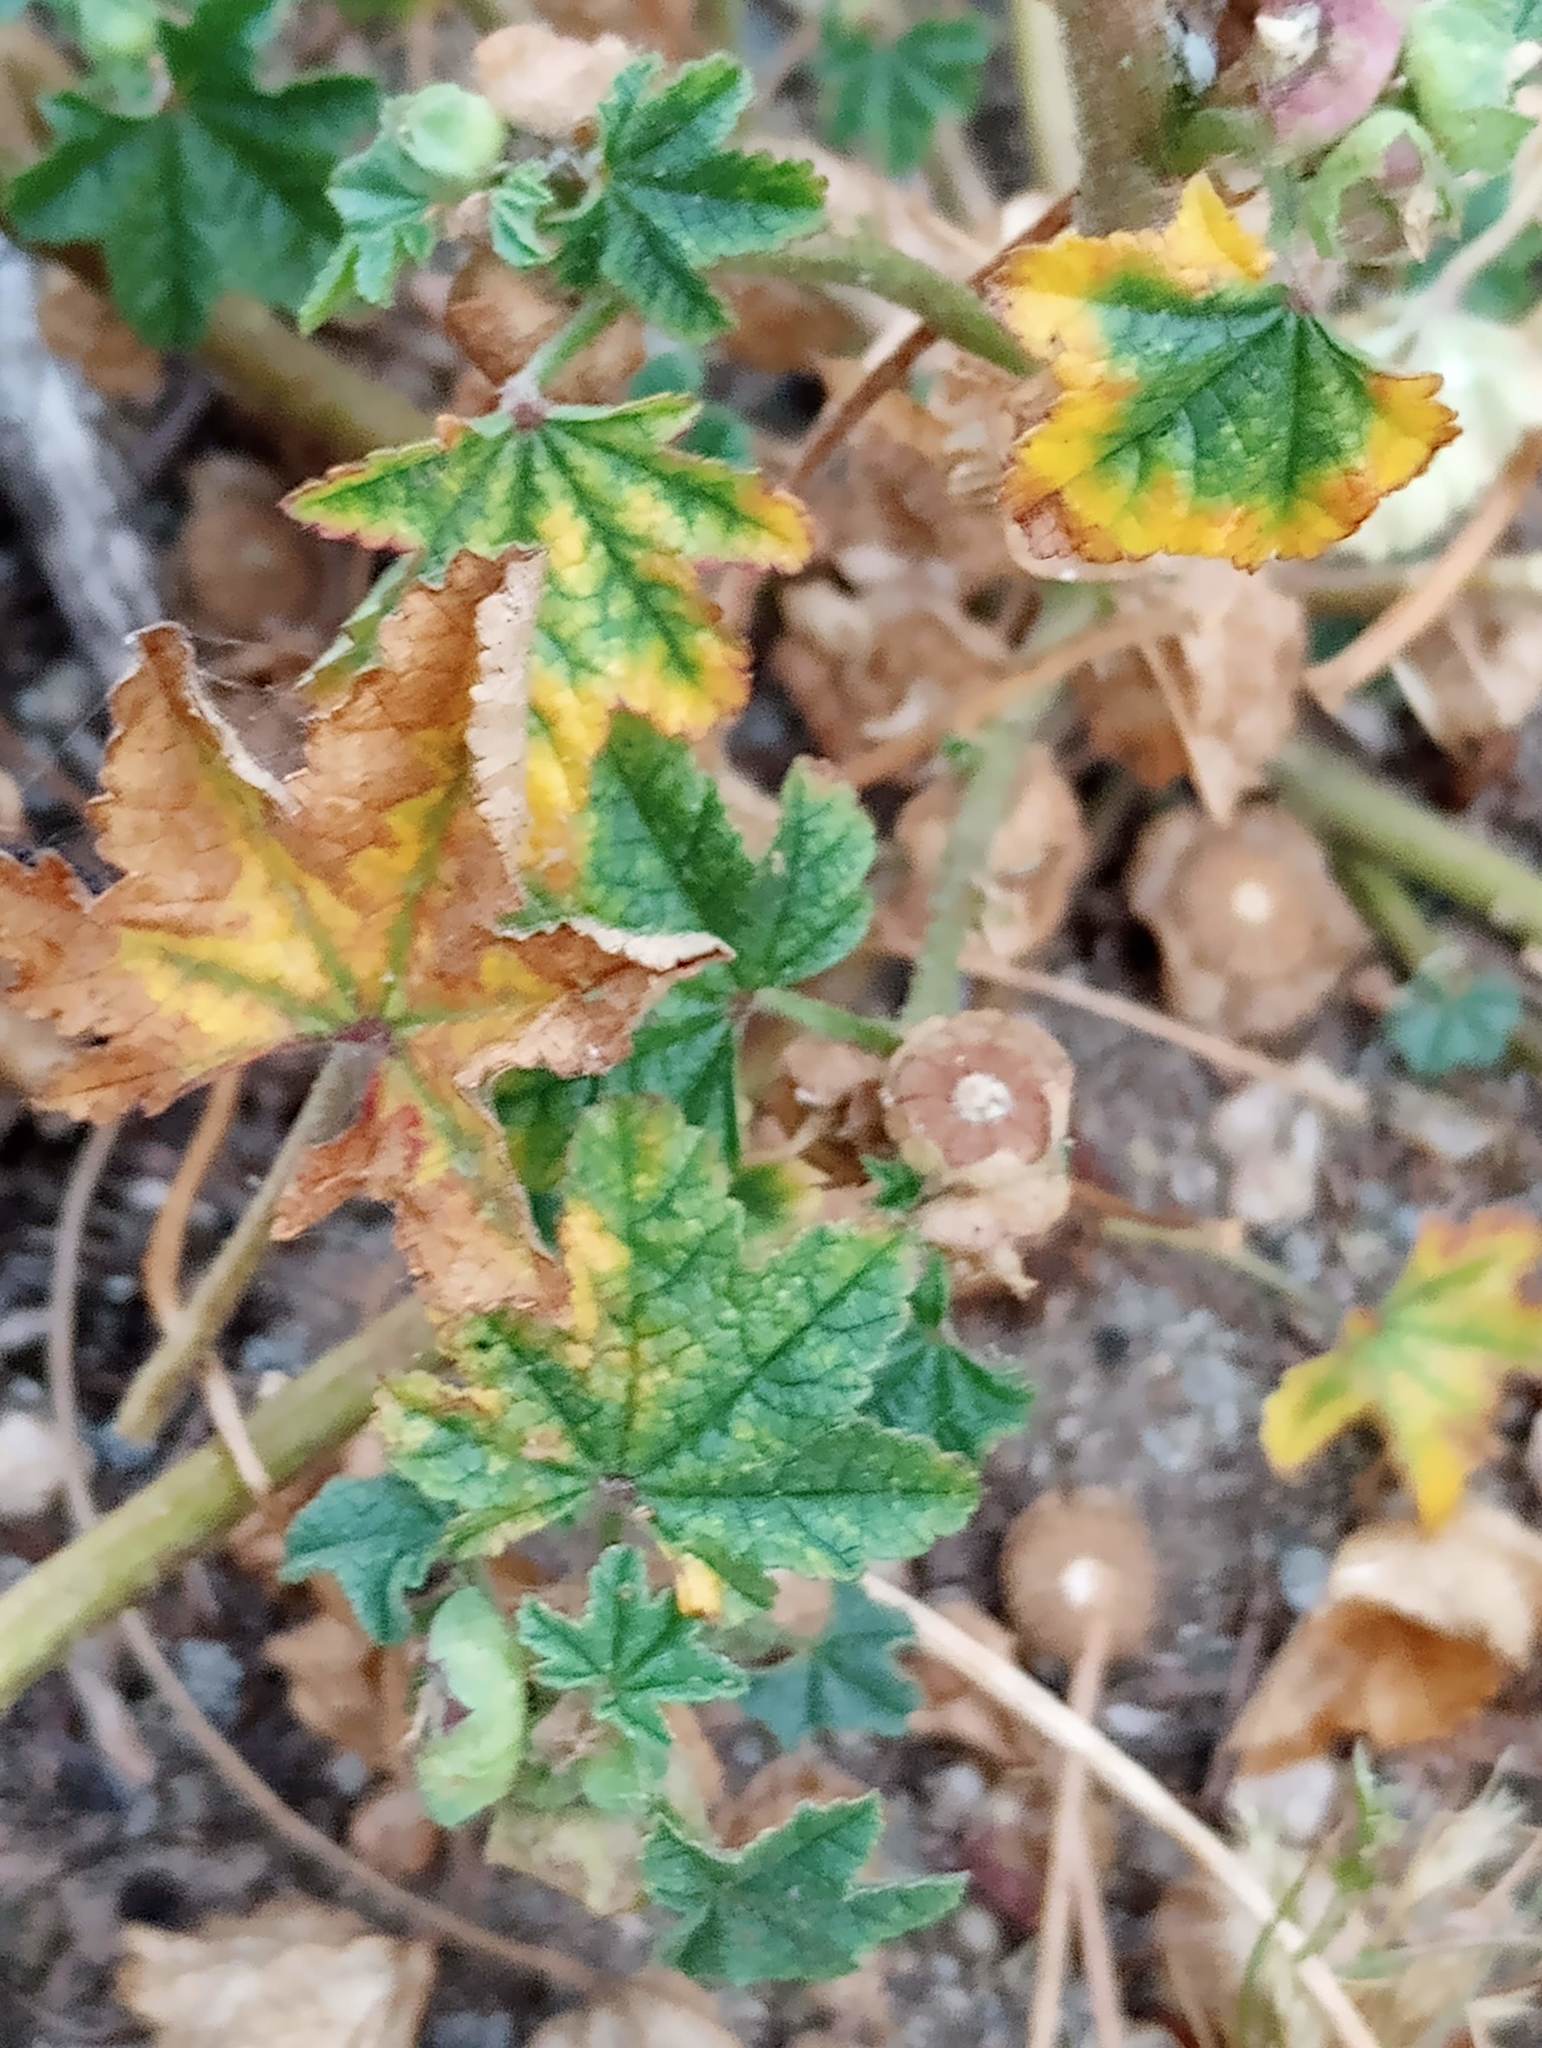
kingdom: Plantae
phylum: Tracheophyta
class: Magnoliopsida
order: Malvales
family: Malvaceae
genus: Malva
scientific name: Malva parviflora
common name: Least mallow
